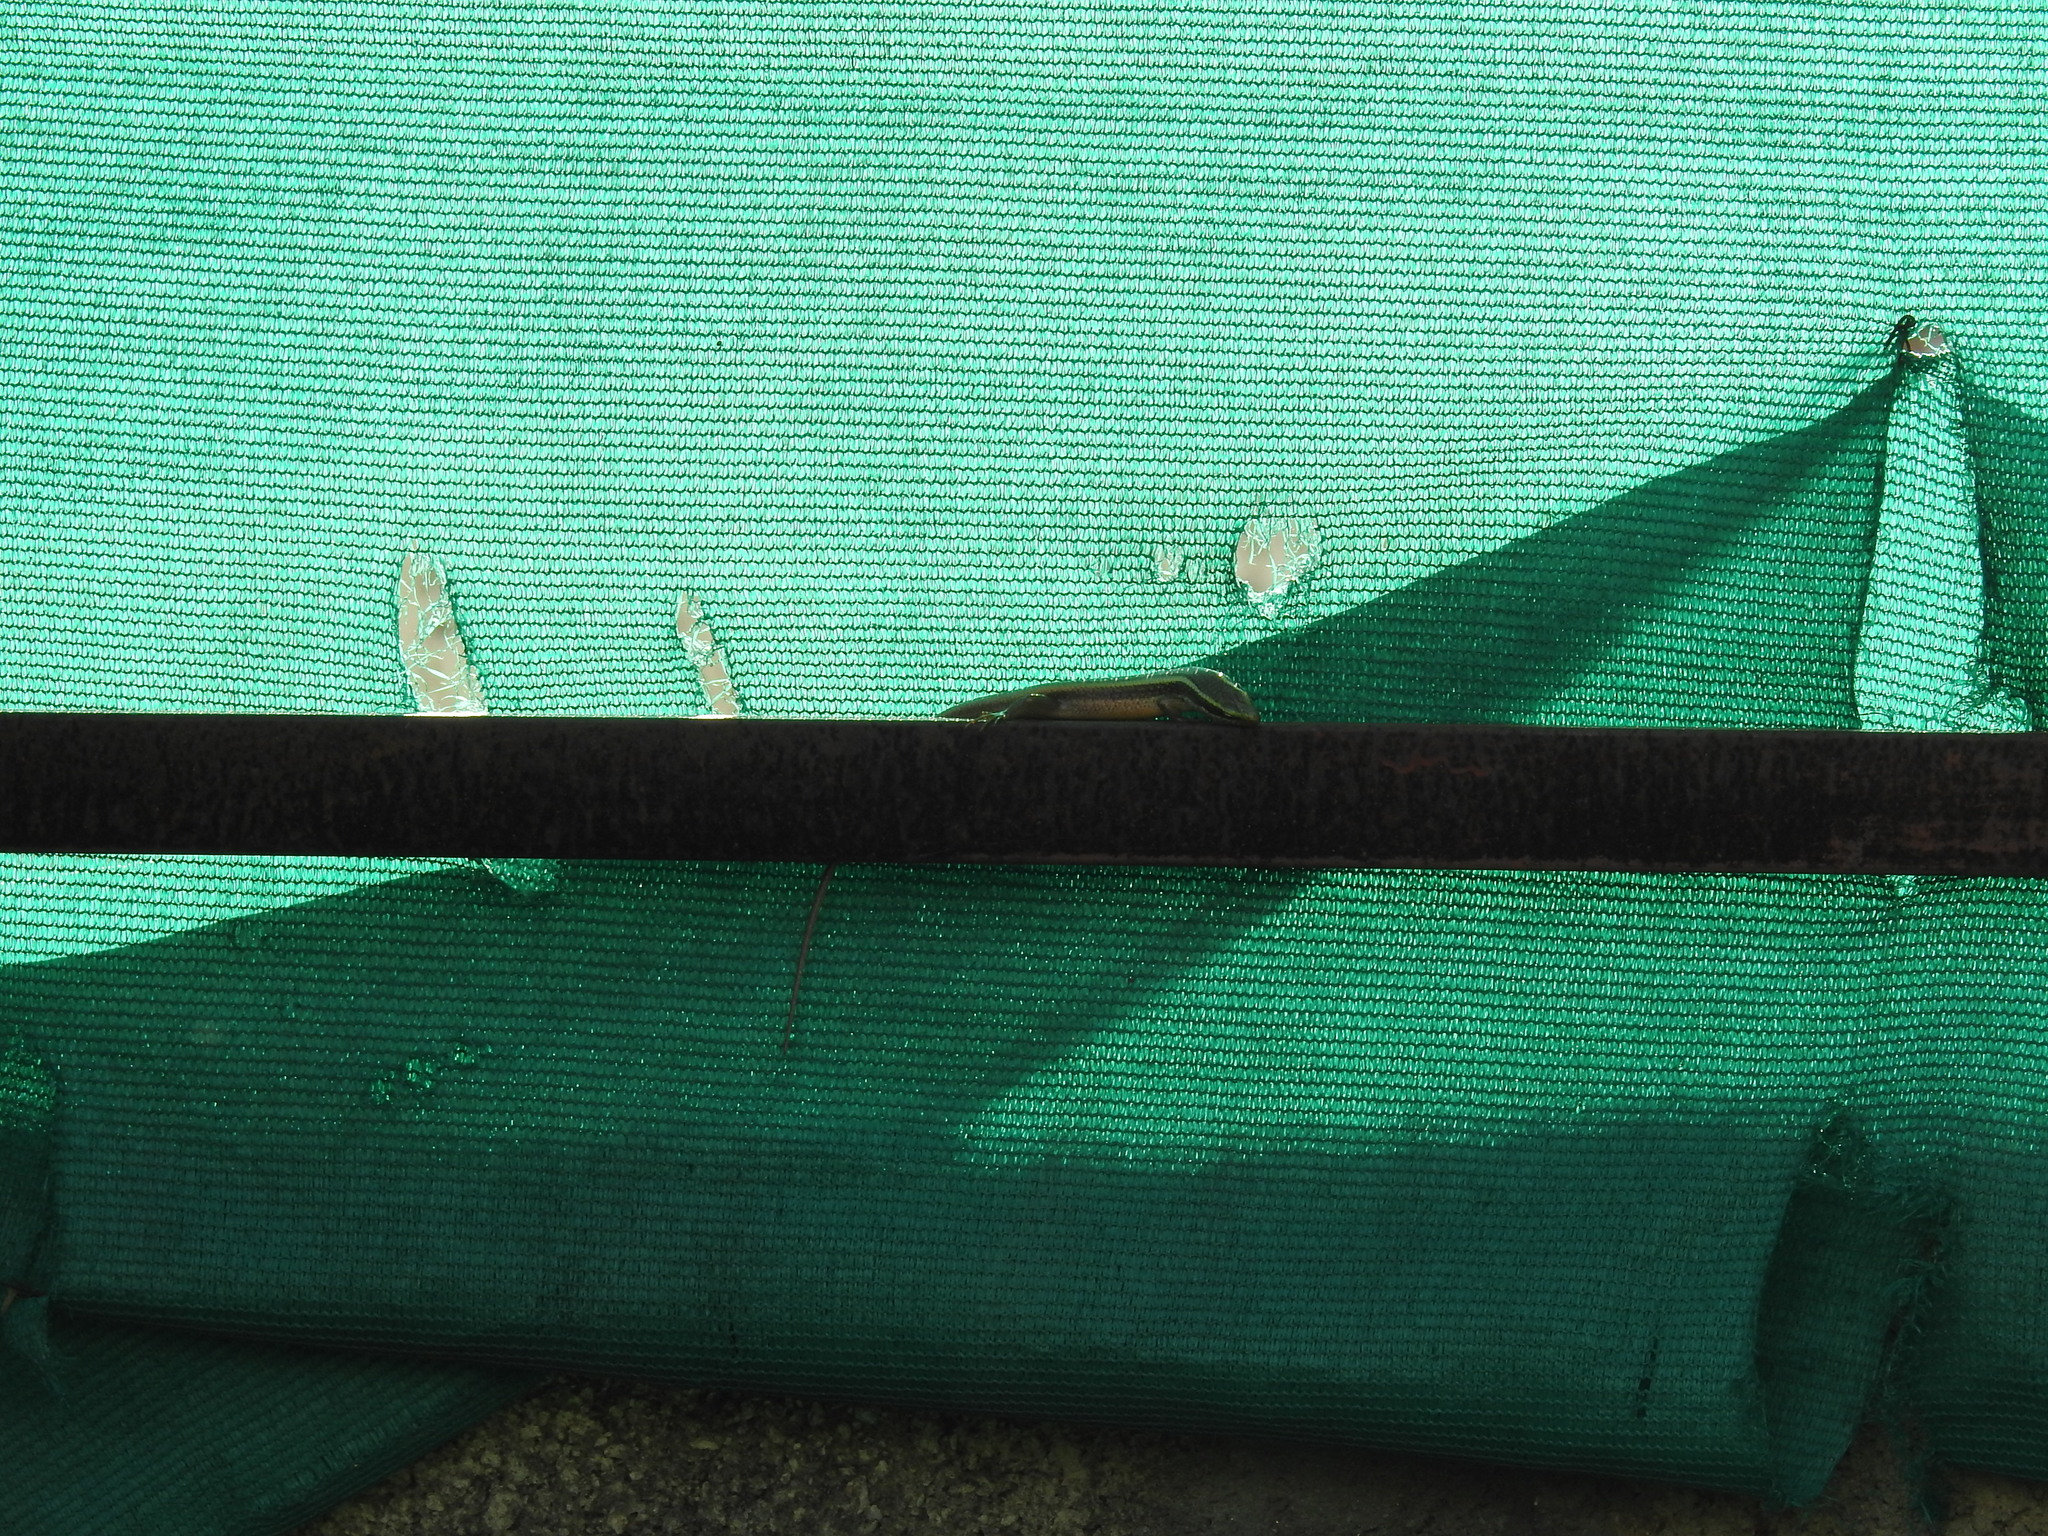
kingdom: Animalia
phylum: Chordata
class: Squamata
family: Scincidae
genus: Eutropis
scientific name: Eutropis carinata
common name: Keeled indian mabuya
